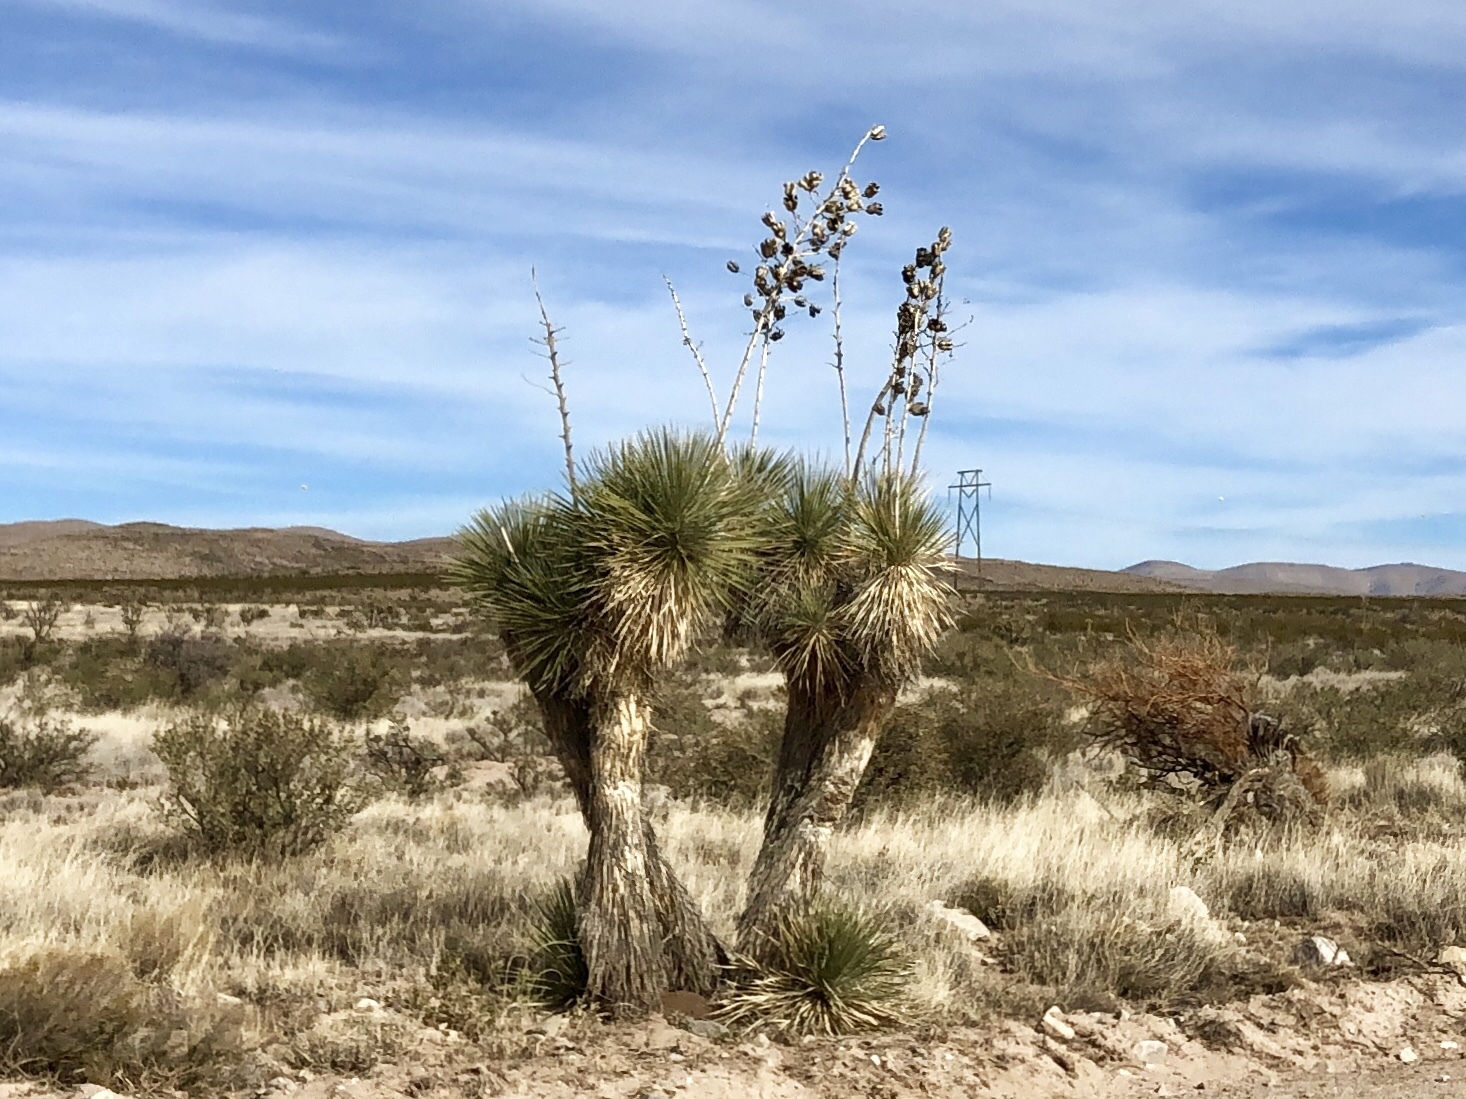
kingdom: Plantae
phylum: Tracheophyta
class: Liliopsida
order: Asparagales
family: Asparagaceae
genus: Yucca
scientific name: Yucca elata
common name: Palmella
